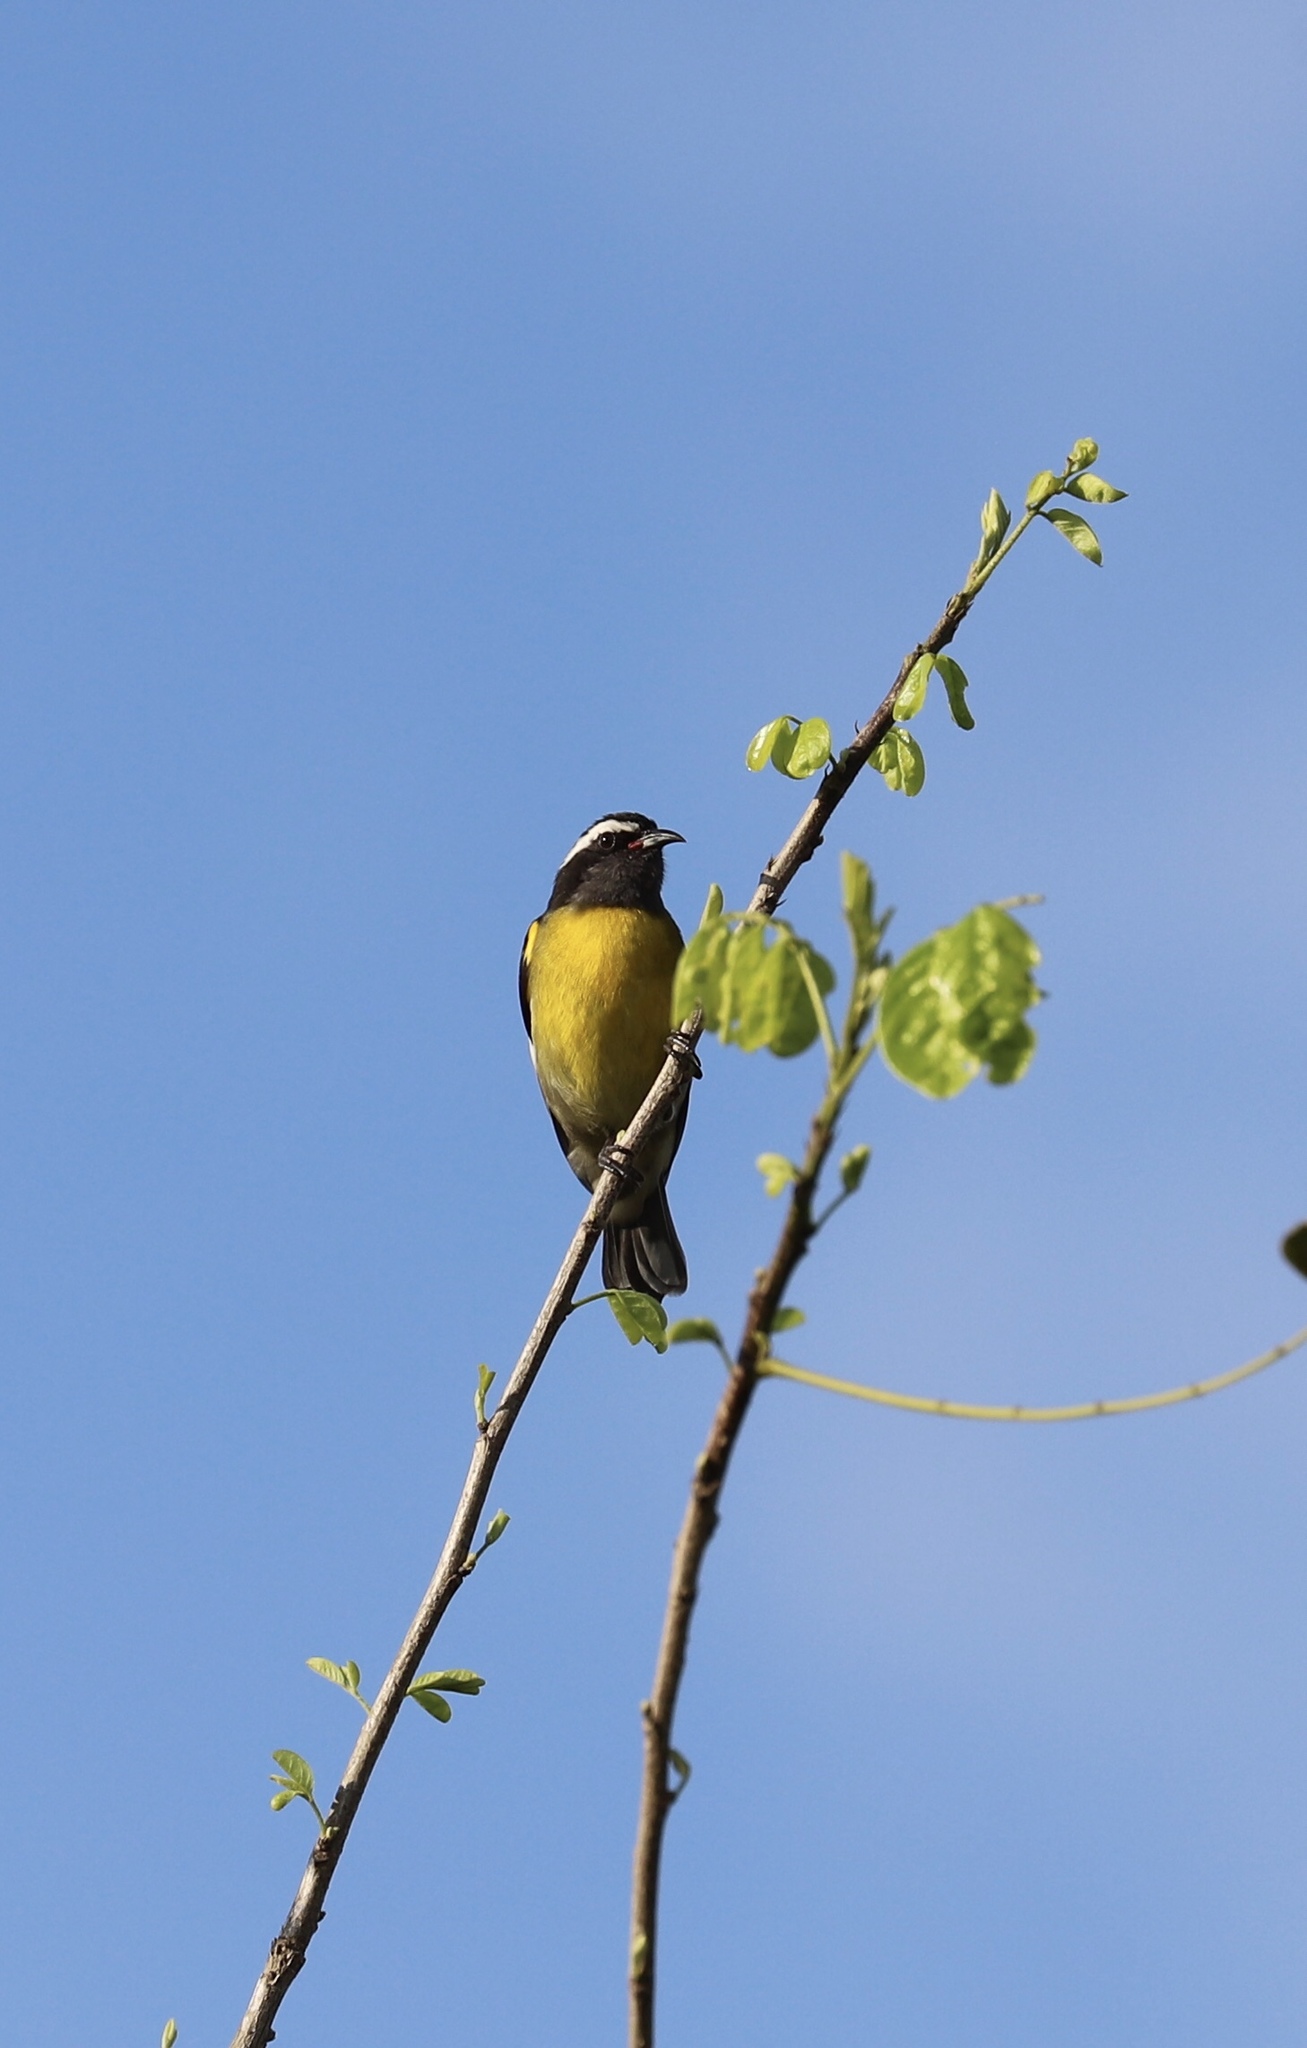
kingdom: Animalia
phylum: Chordata
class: Aves
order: Passeriformes
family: Thraupidae
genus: Coereba
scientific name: Coereba flaveola
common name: Bananaquit
